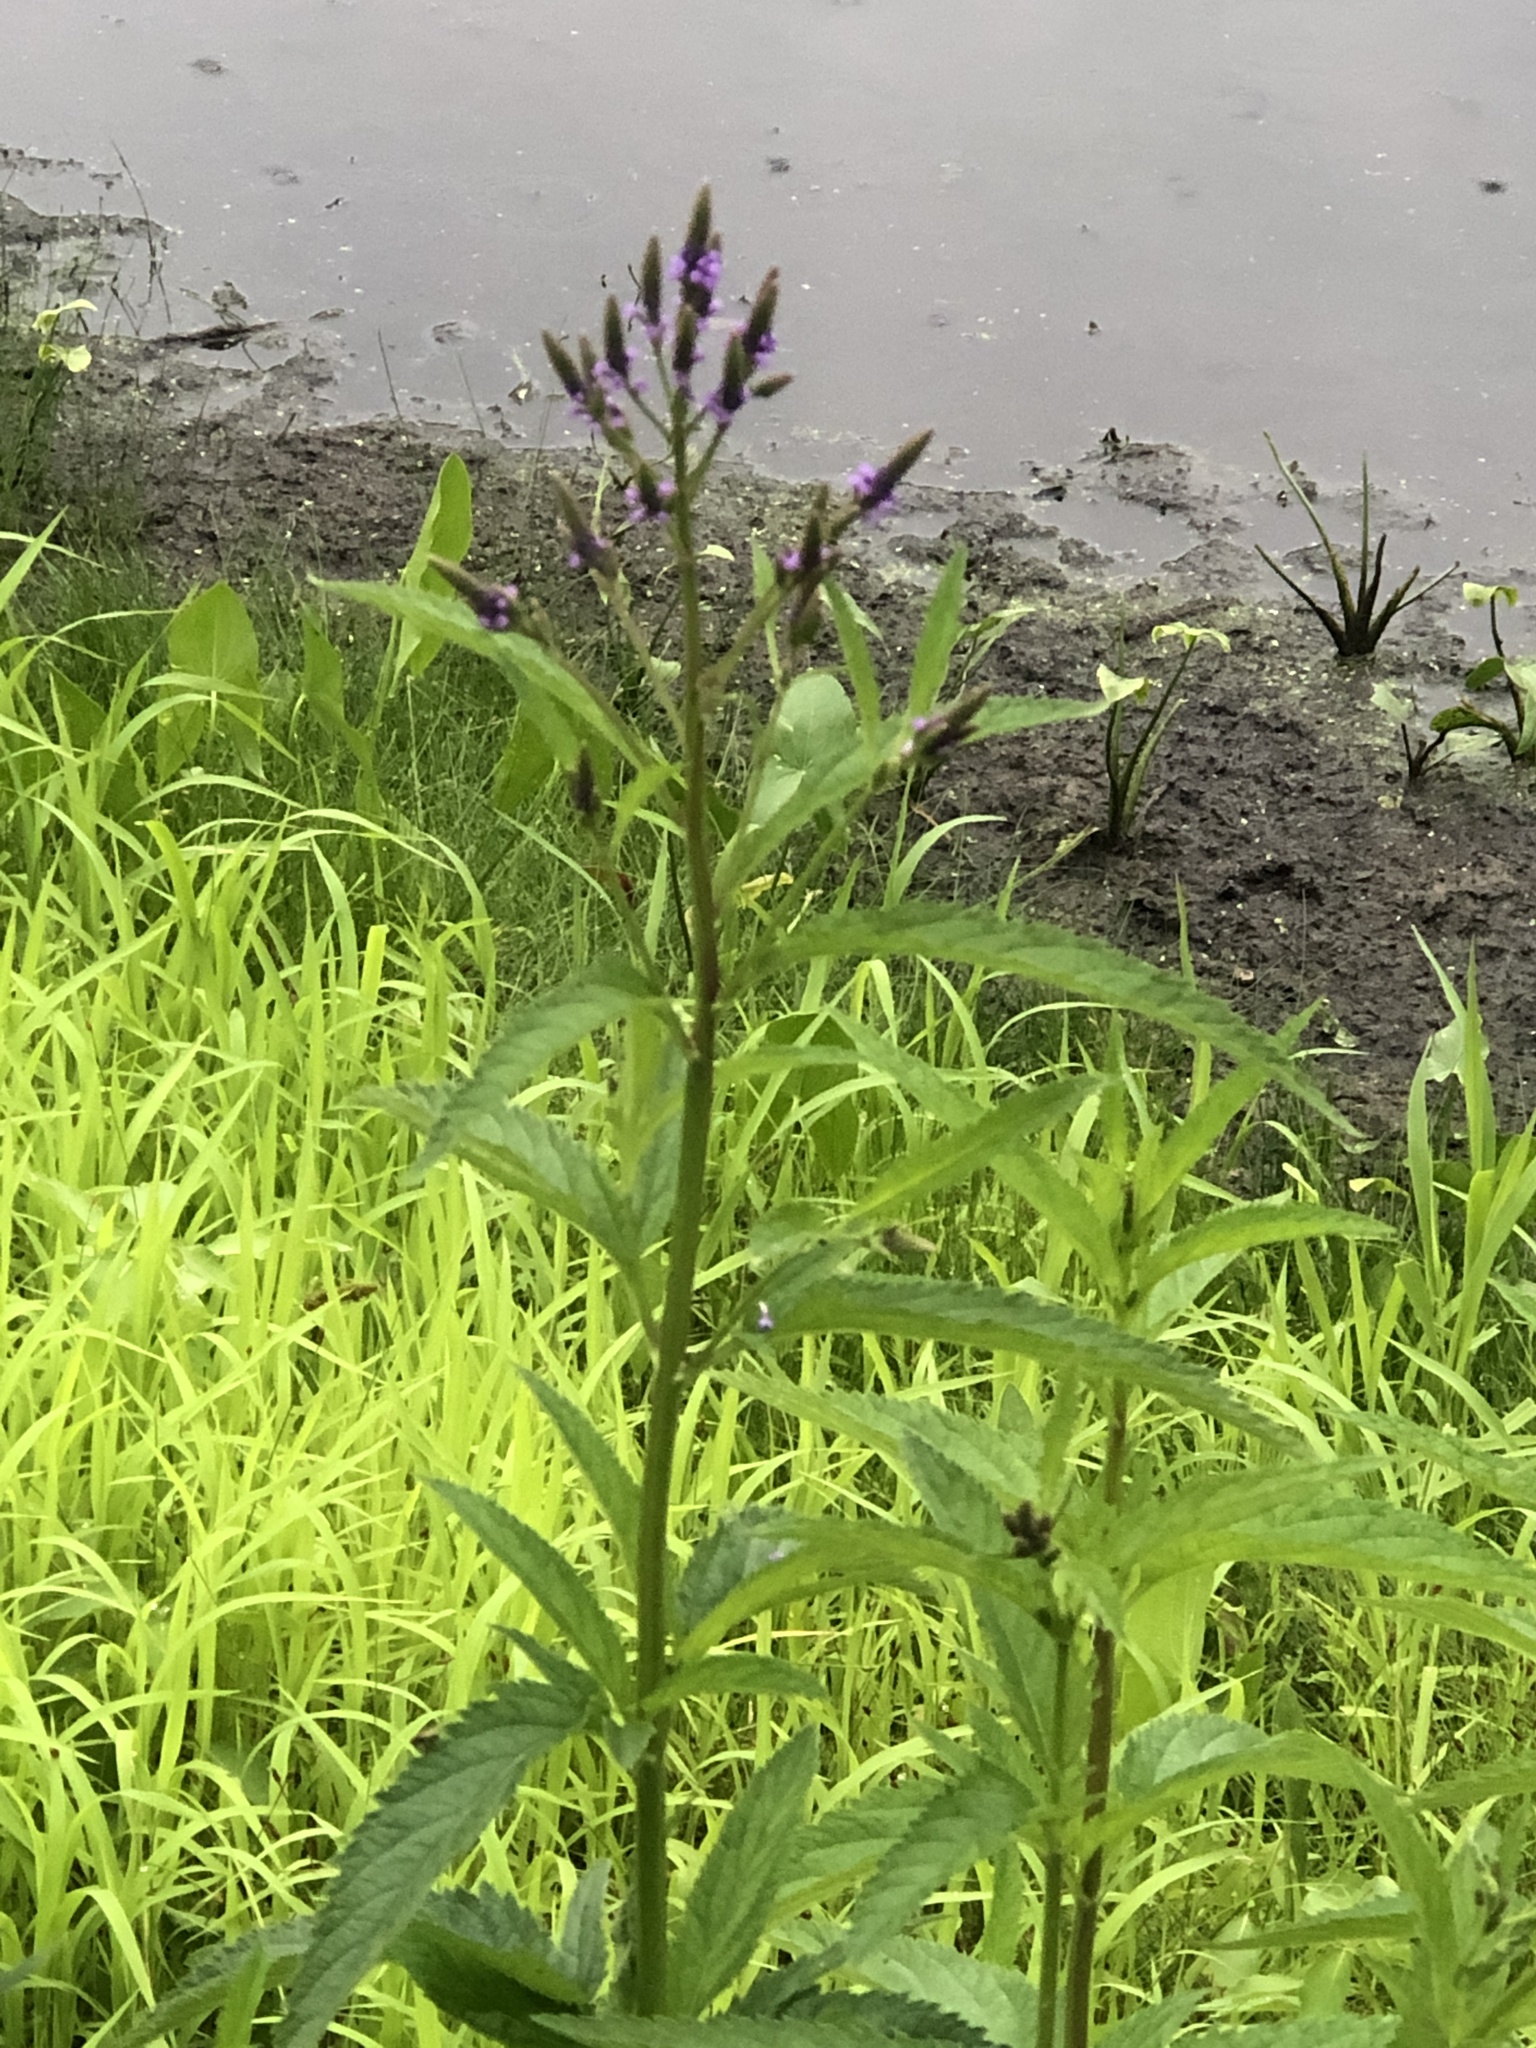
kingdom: Plantae
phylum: Tracheophyta
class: Magnoliopsida
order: Lamiales
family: Verbenaceae
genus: Verbena
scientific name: Verbena hastata
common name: American blue vervain
